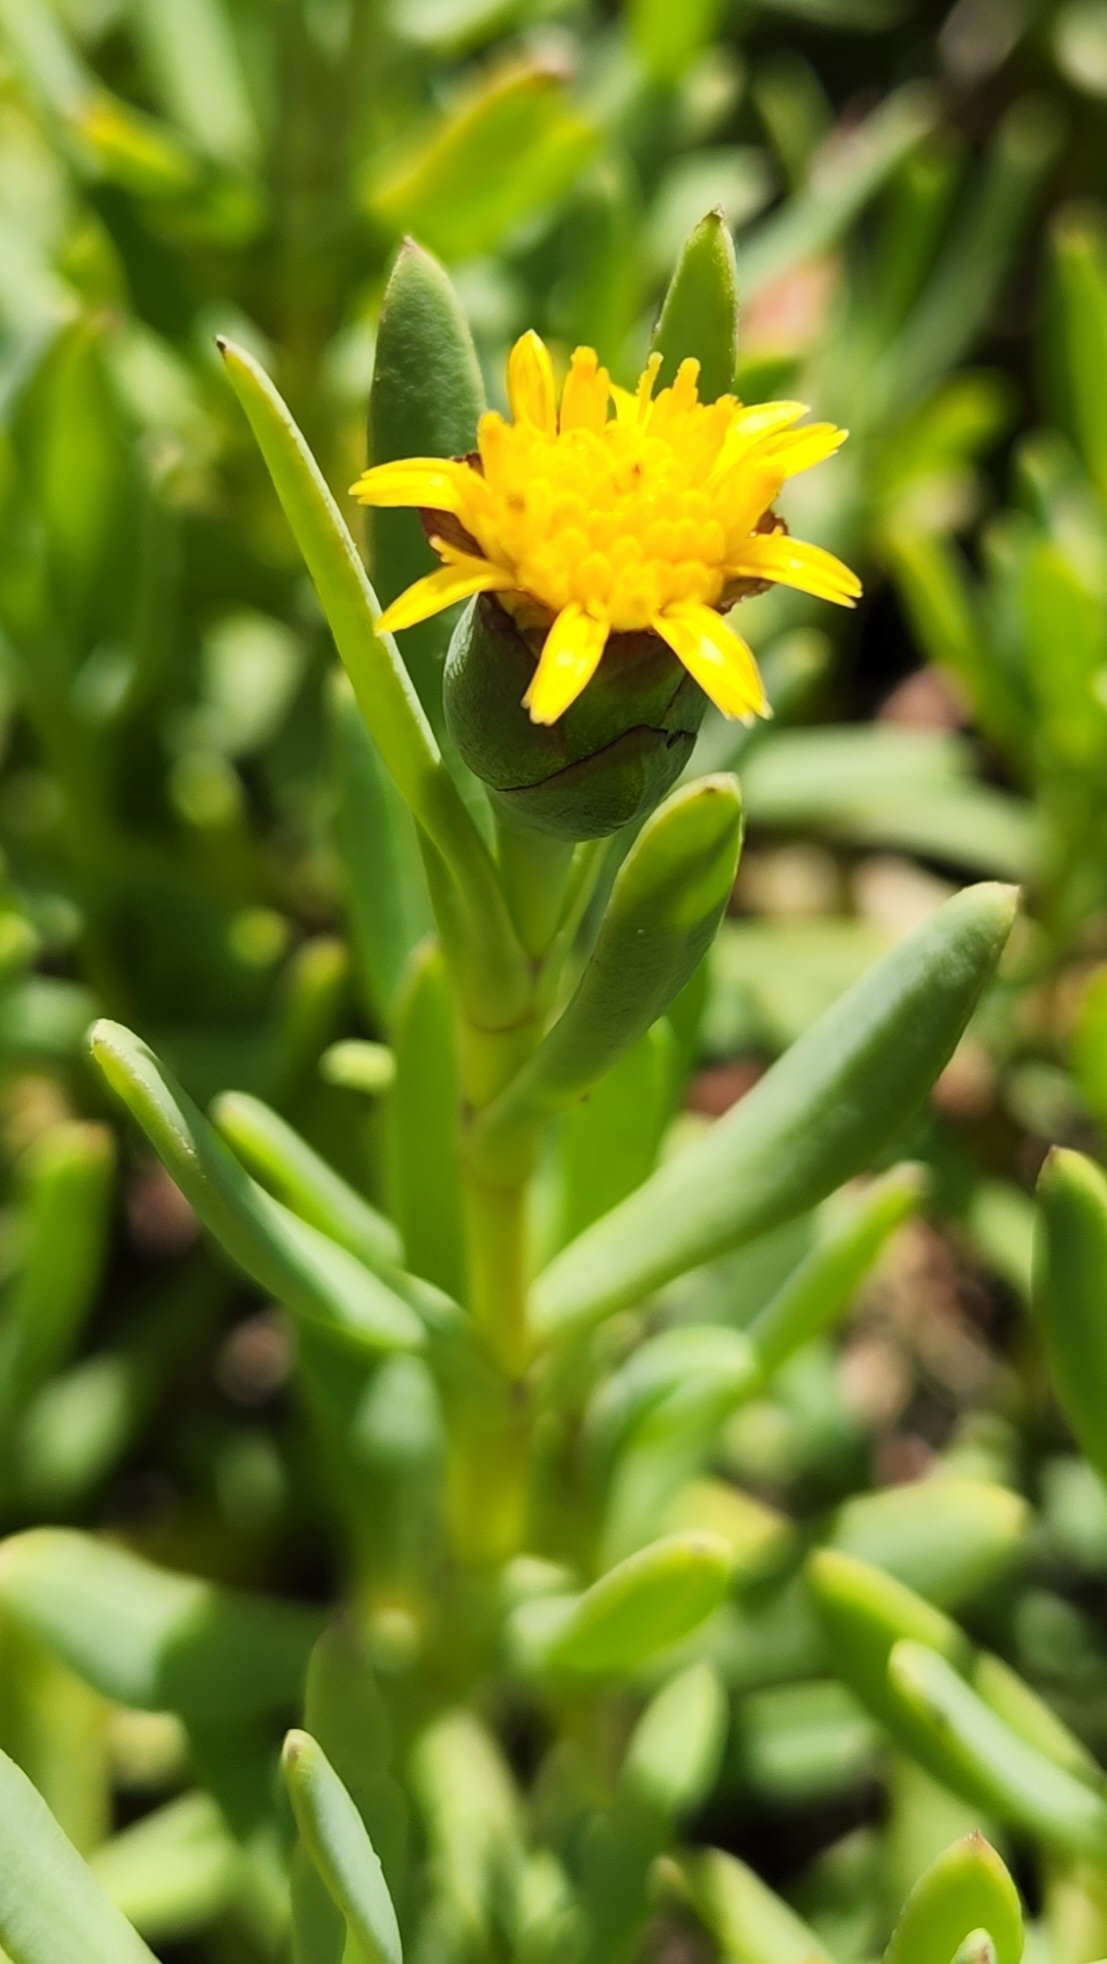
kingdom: Plantae
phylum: Tracheophyta
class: Magnoliopsida
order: Asterales
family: Asteraceae
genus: Jaumea
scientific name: Jaumea carnosa
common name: Fleshy jaumea
